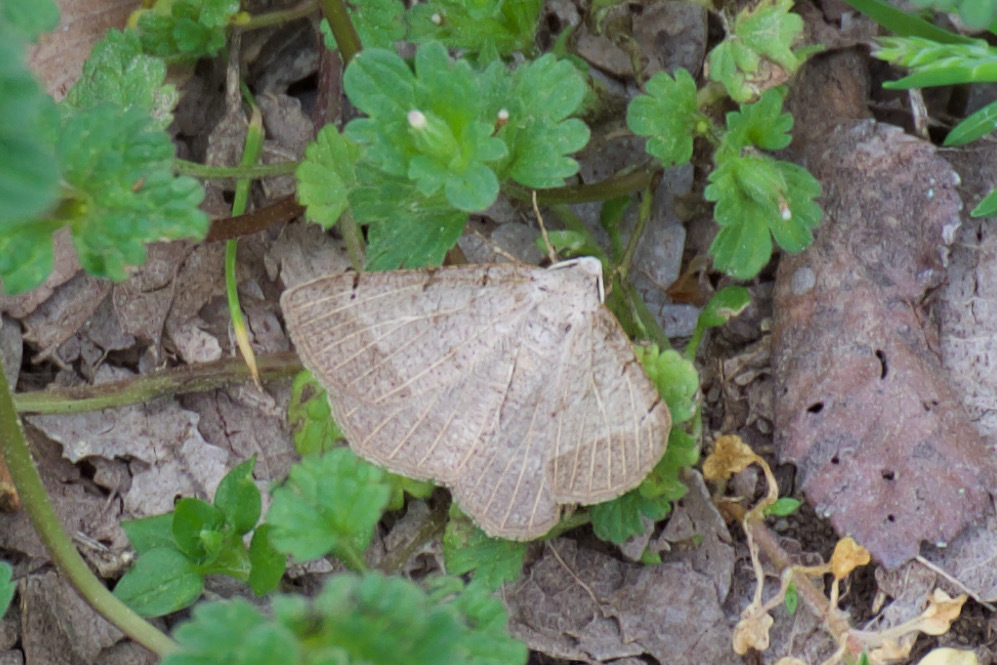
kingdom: Animalia
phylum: Arthropoda
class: Insecta
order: Lepidoptera
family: Geometridae
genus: Isturgia
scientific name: Isturgia dislocaria
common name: Pale-viened enconista
